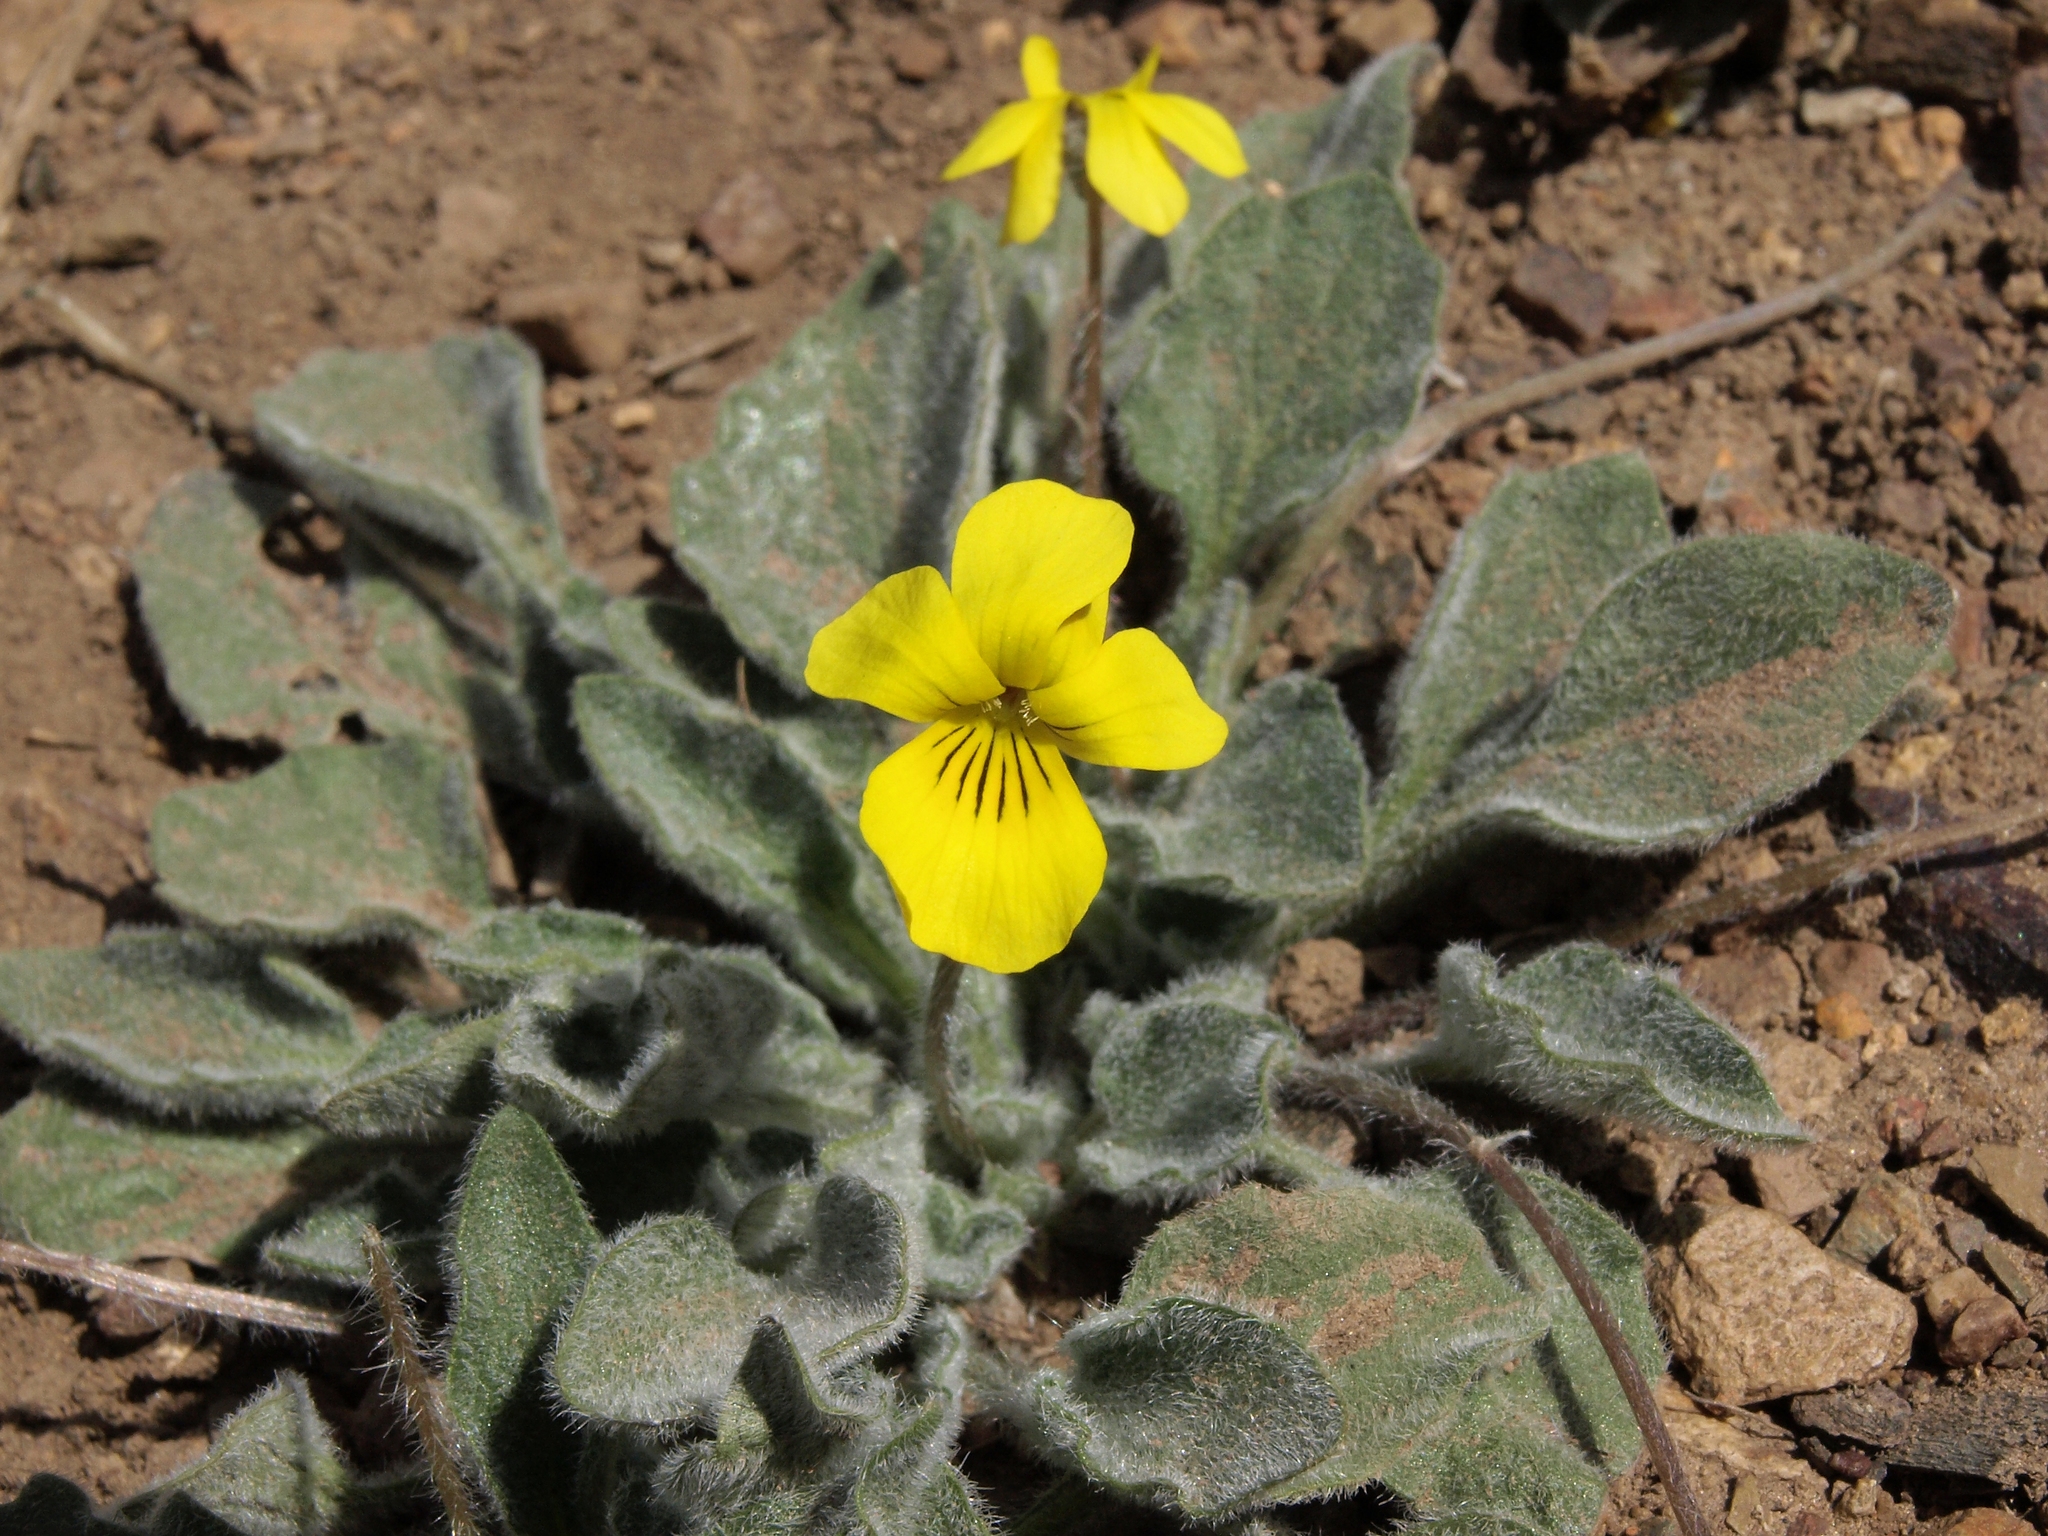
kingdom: Plantae
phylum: Tracheophyta
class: Magnoliopsida
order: Malpighiales
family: Violaceae
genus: Viola
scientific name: Viola aurea
